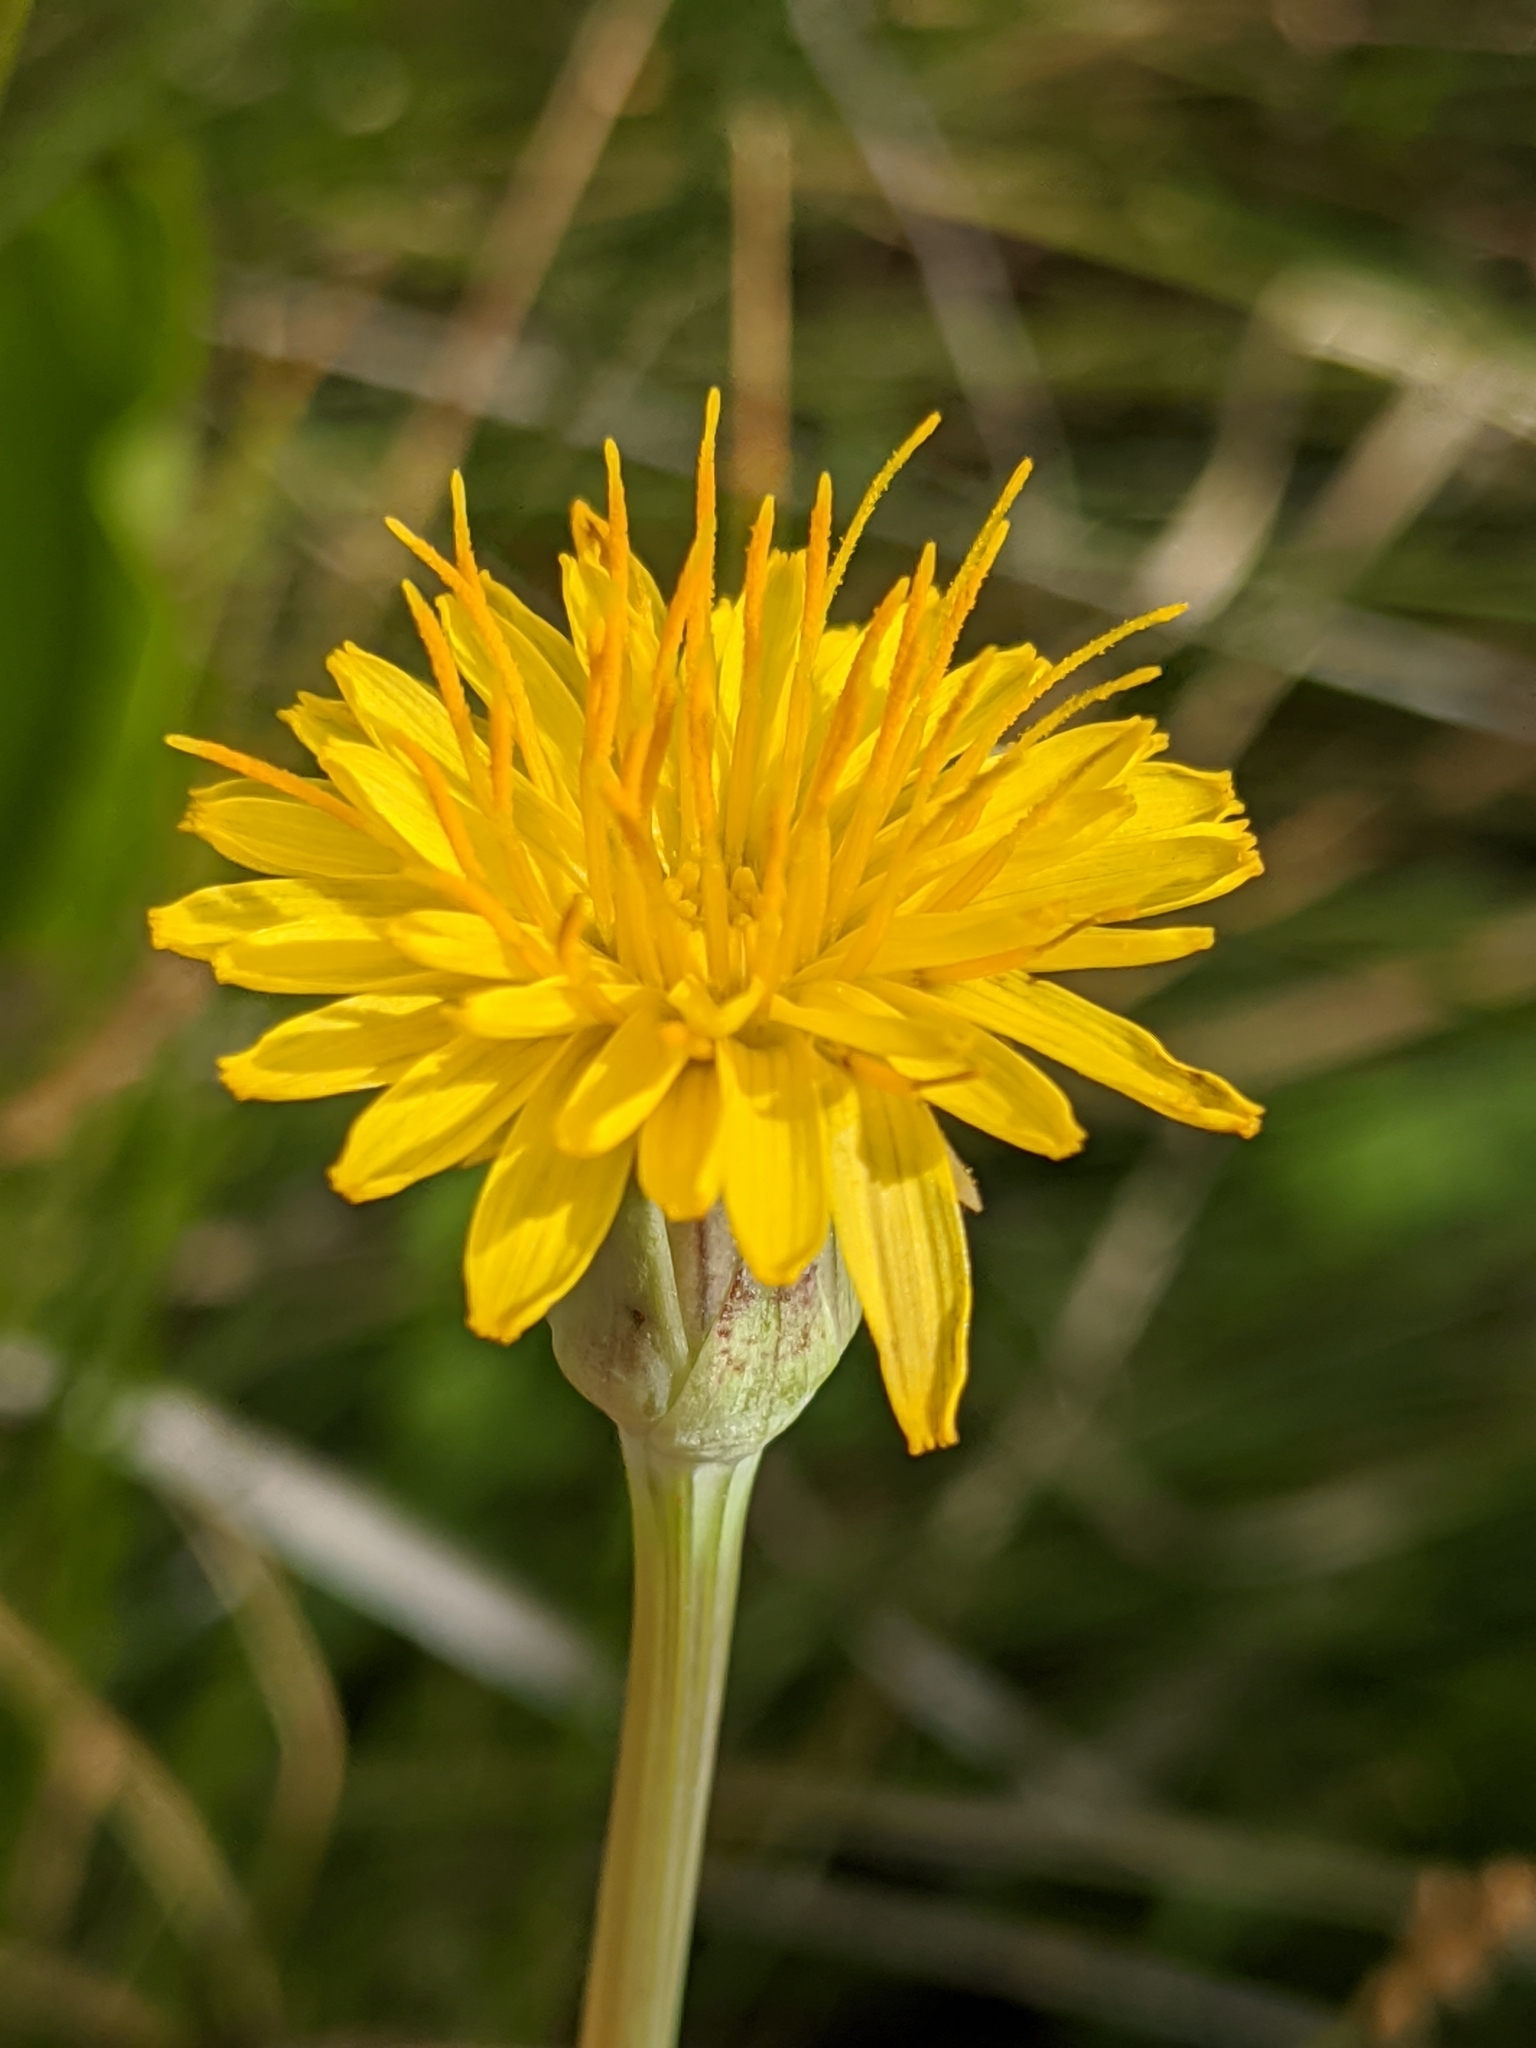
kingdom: Plantae
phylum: Tracheophyta
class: Magnoliopsida
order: Asterales
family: Asteraceae
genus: Agoseris
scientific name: Agoseris glauca
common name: Prairie agoseris
